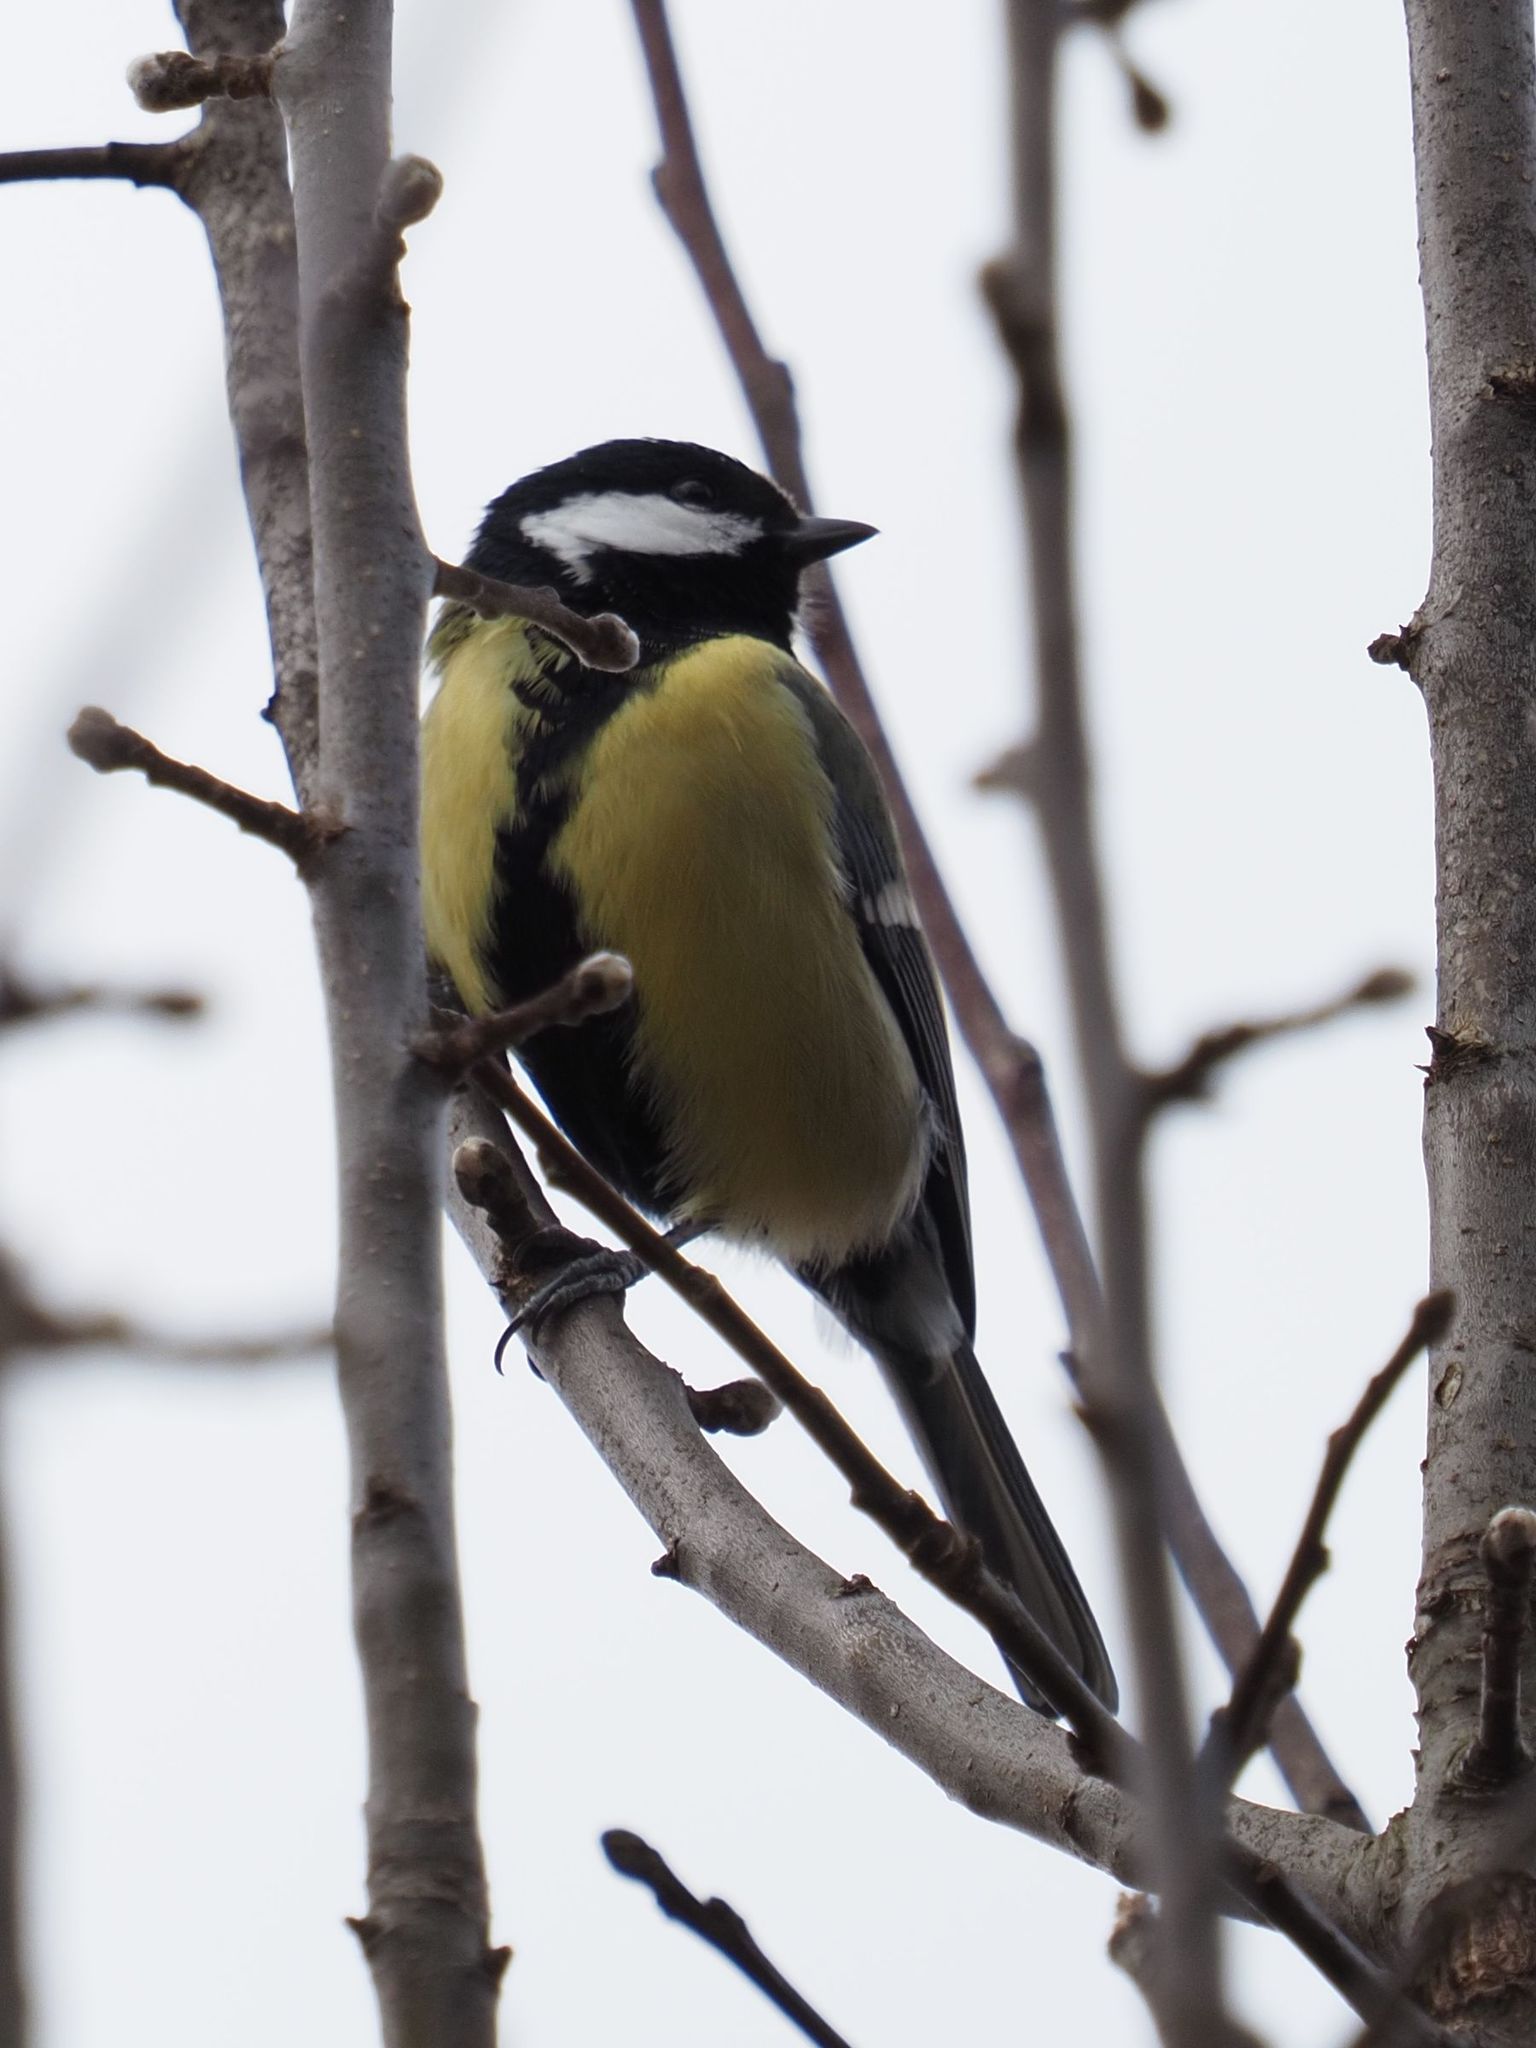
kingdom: Animalia
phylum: Chordata
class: Aves
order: Passeriformes
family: Paridae
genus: Parus
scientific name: Parus major
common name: Great tit
